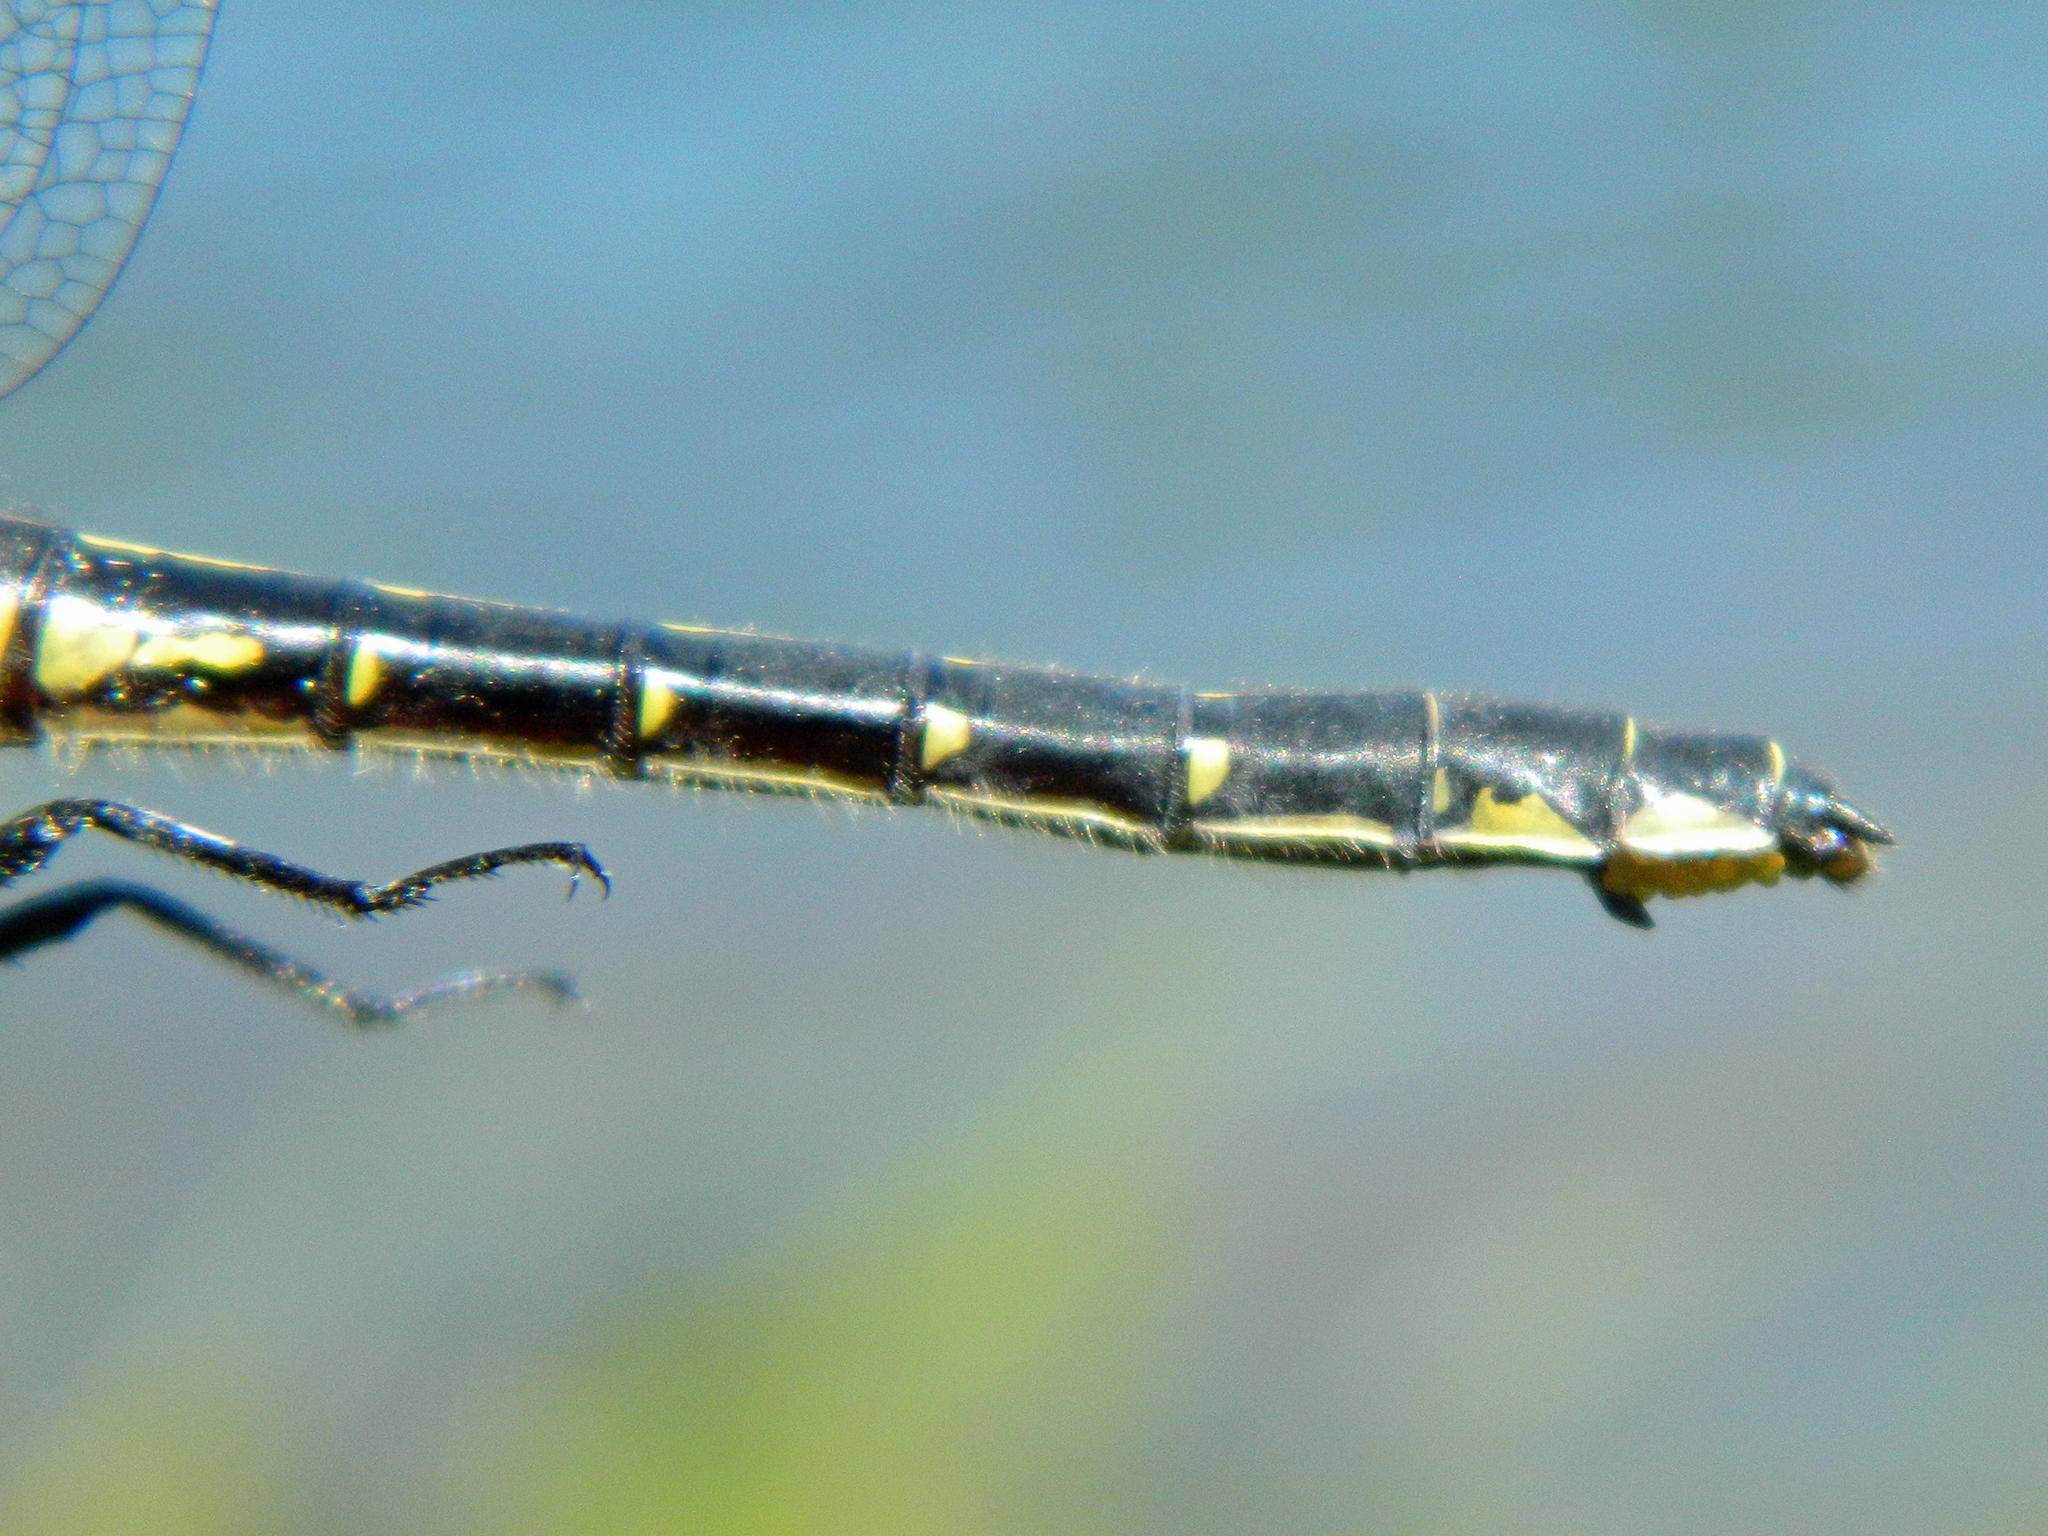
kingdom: Animalia
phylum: Arthropoda
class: Insecta
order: Odonata
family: Gomphidae
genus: Hylogomphus
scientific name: Hylogomphus adelphus
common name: Mustached clubtail
